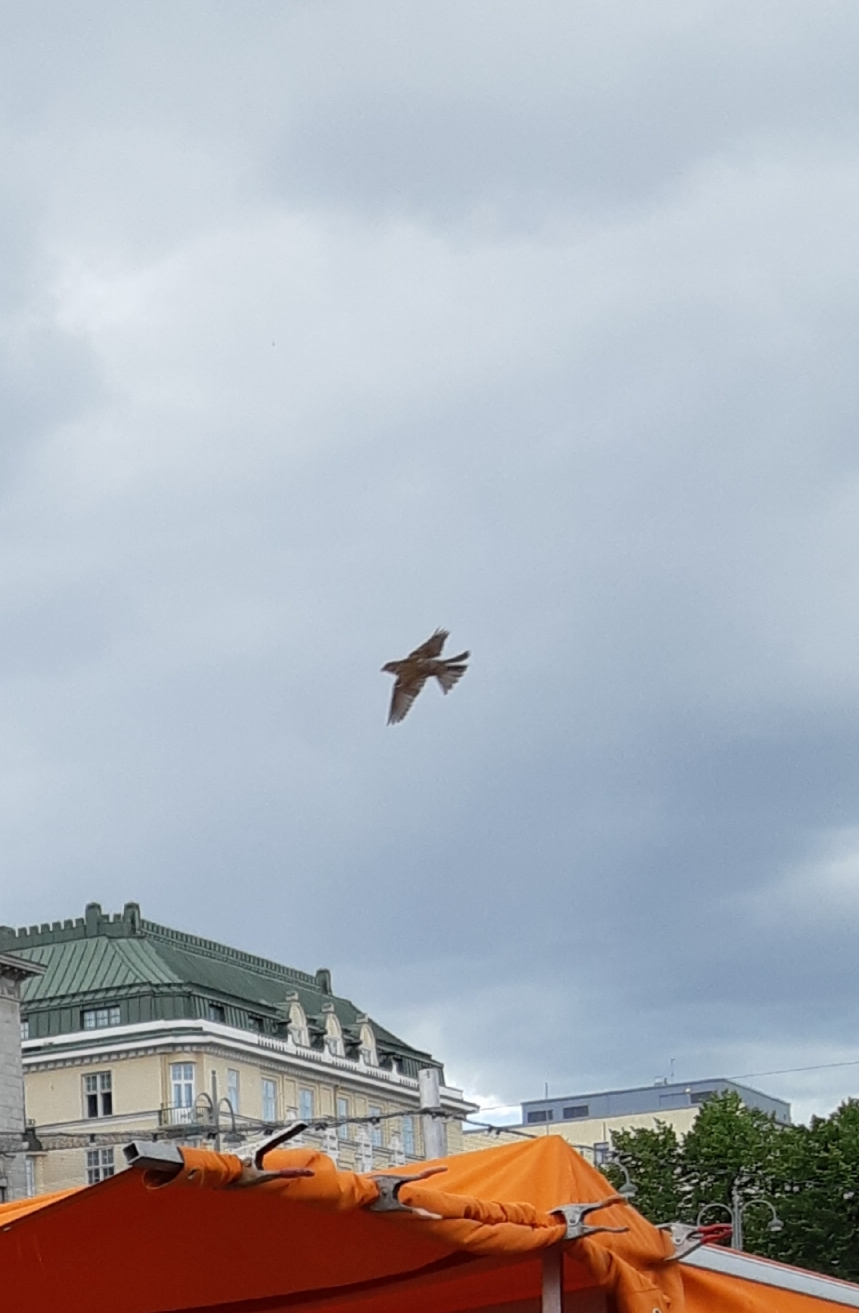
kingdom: Animalia
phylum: Chordata
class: Aves
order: Passeriformes
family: Passeridae
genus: Passer
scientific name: Passer domesticus
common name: House sparrow
